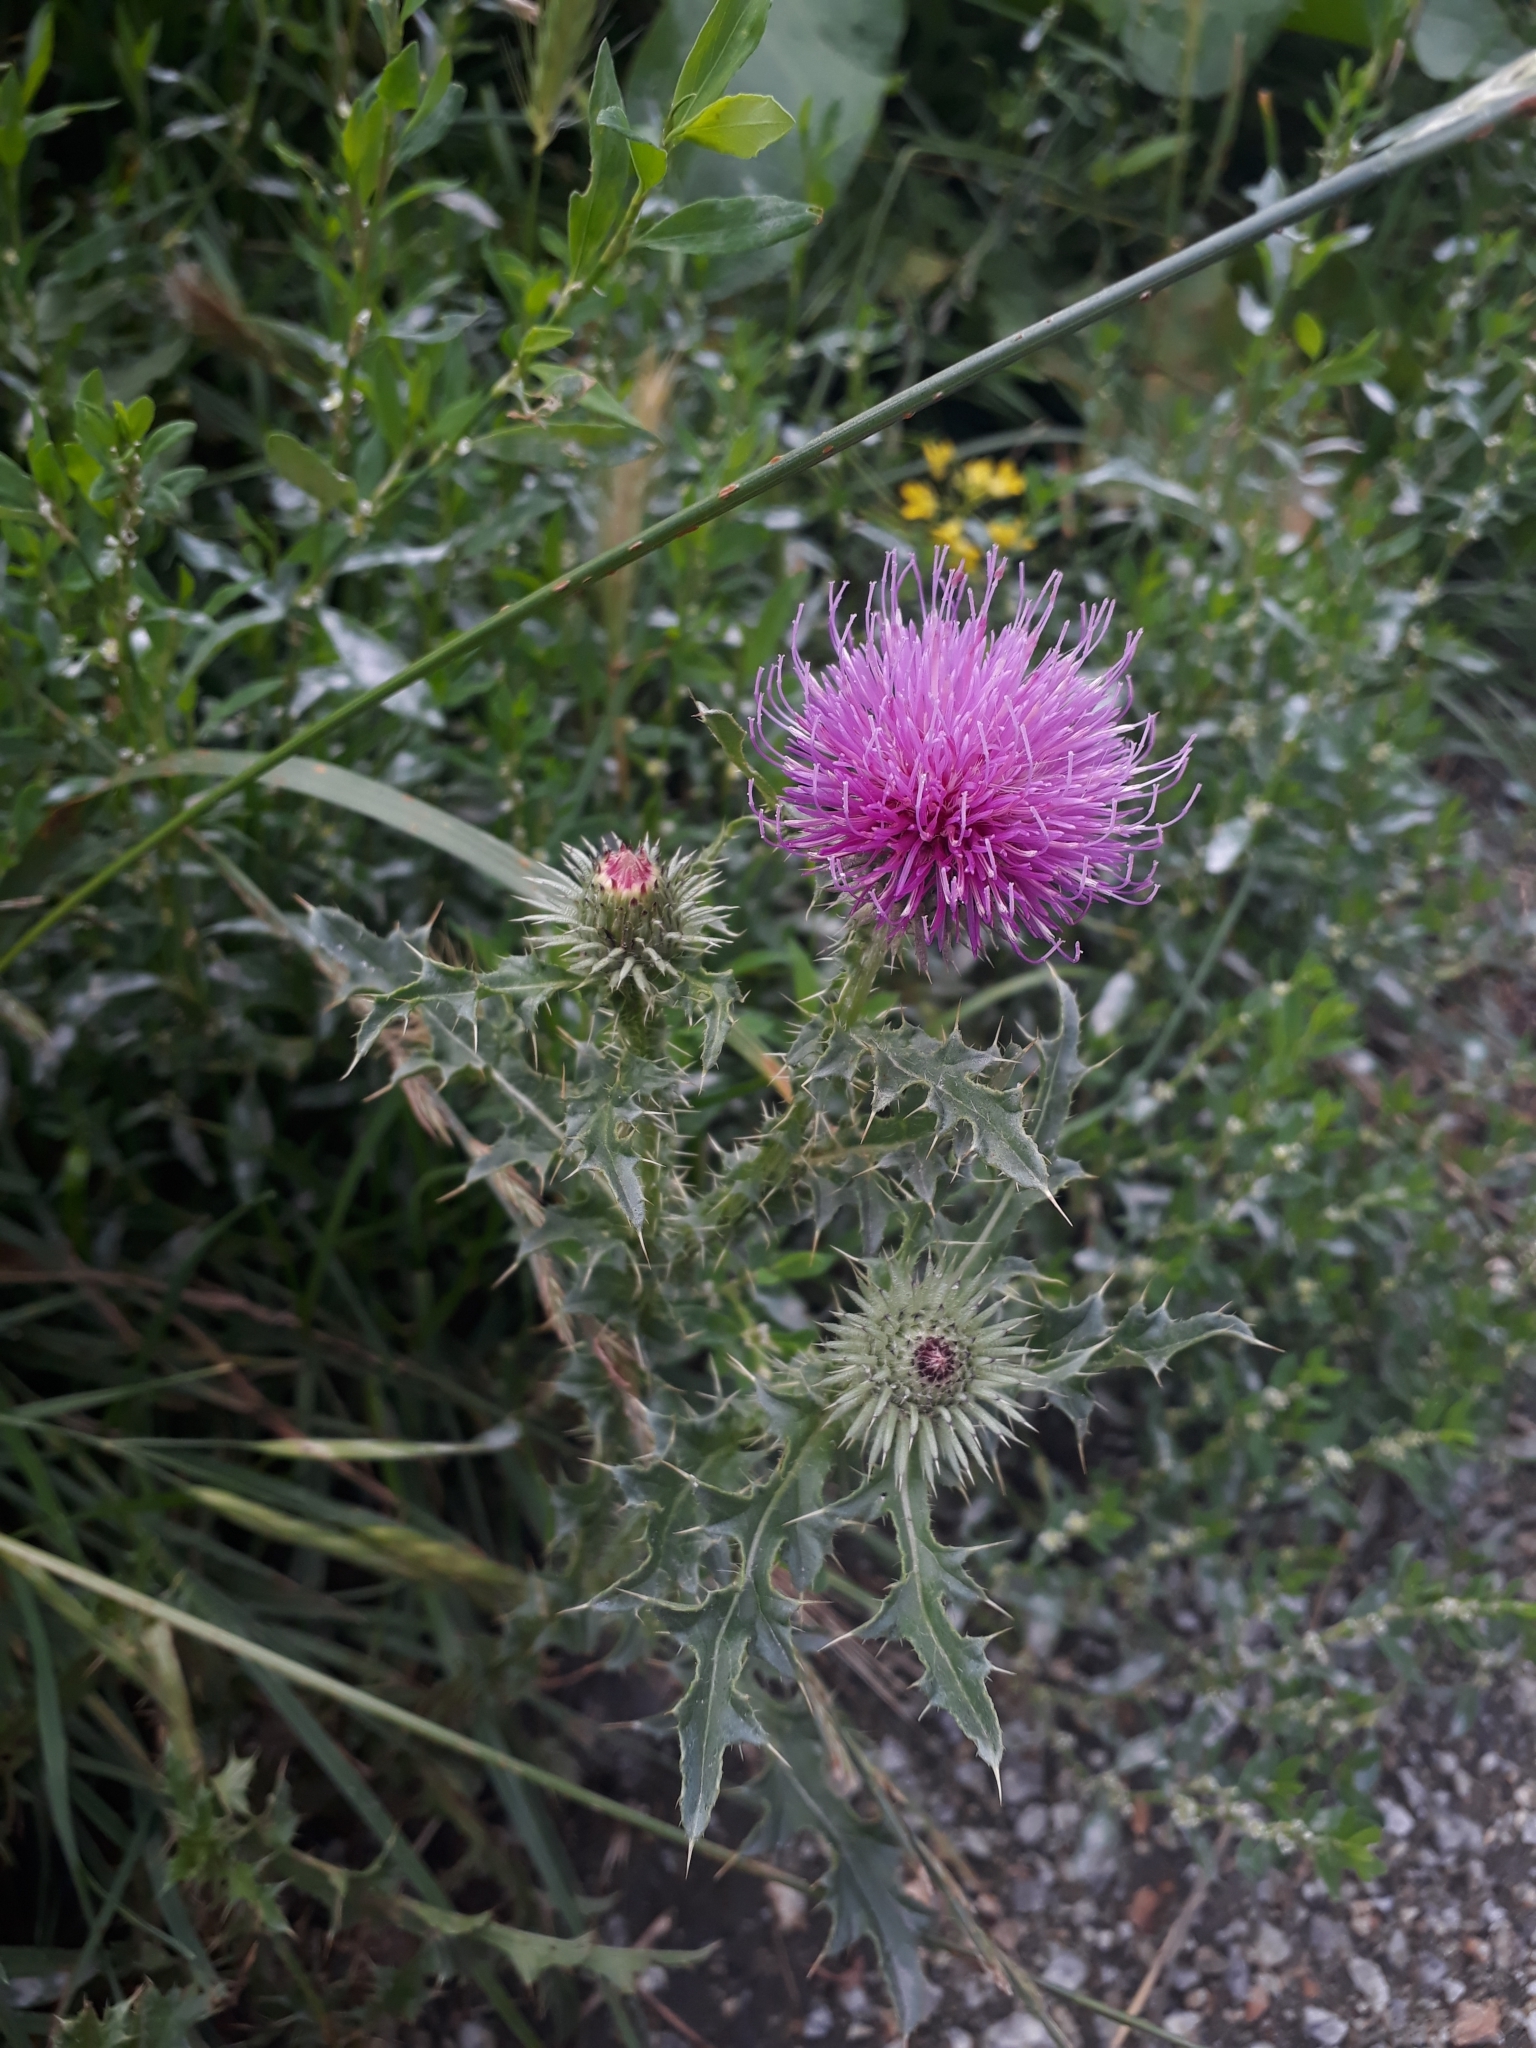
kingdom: Plantae
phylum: Tracheophyta
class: Magnoliopsida
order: Asterales
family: Asteraceae
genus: Carduus
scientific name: Carduus acanthoides
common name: Plumeless thistle
